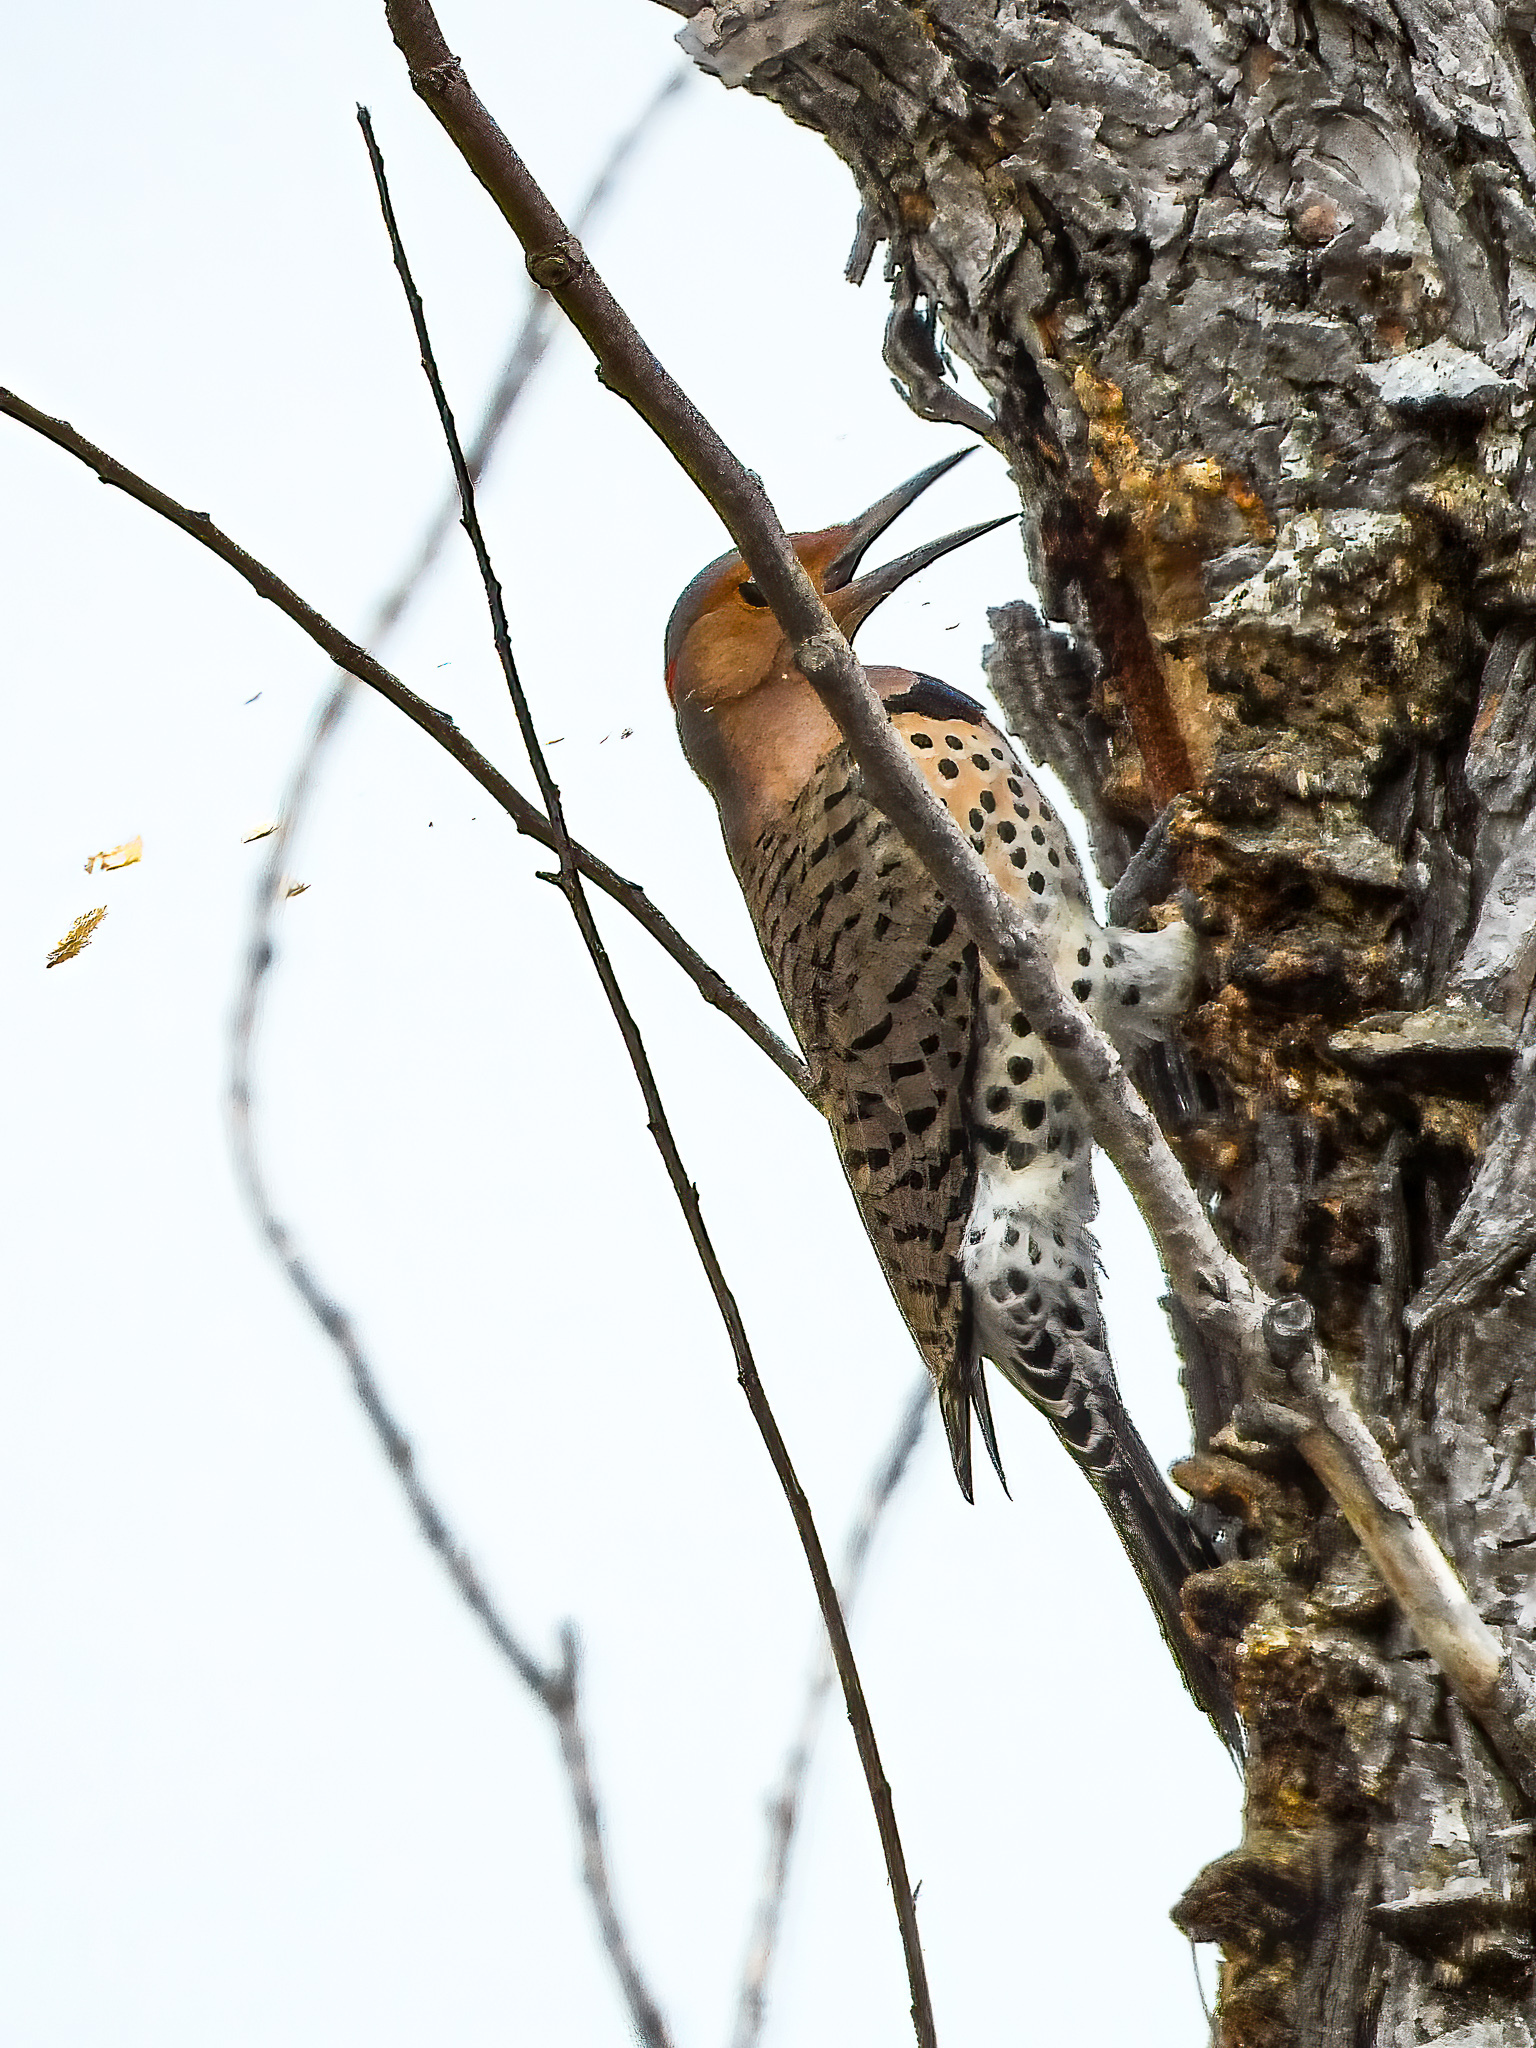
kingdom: Animalia
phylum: Chordata
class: Aves
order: Piciformes
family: Picidae
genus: Colaptes
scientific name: Colaptes auratus
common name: Northern flicker
